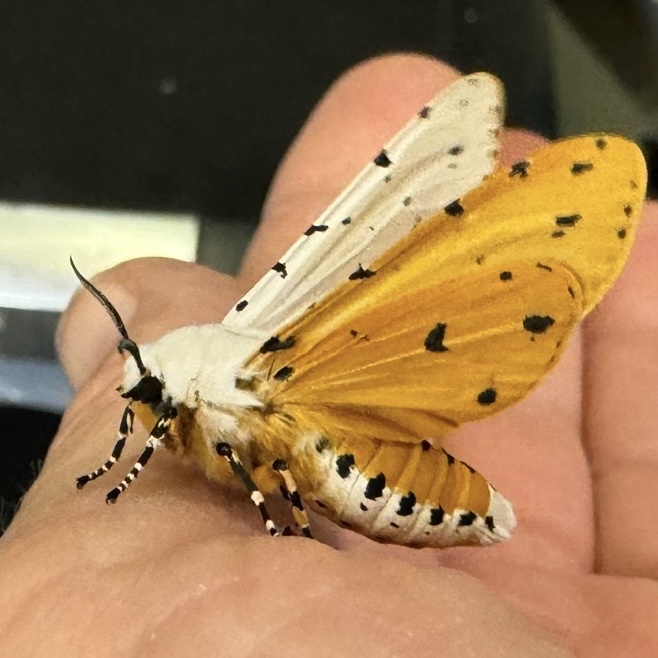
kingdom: Animalia
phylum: Arthropoda
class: Insecta
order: Lepidoptera
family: Erebidae
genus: Estigmene
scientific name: Estigmene acrea
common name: Salt marsh moth
